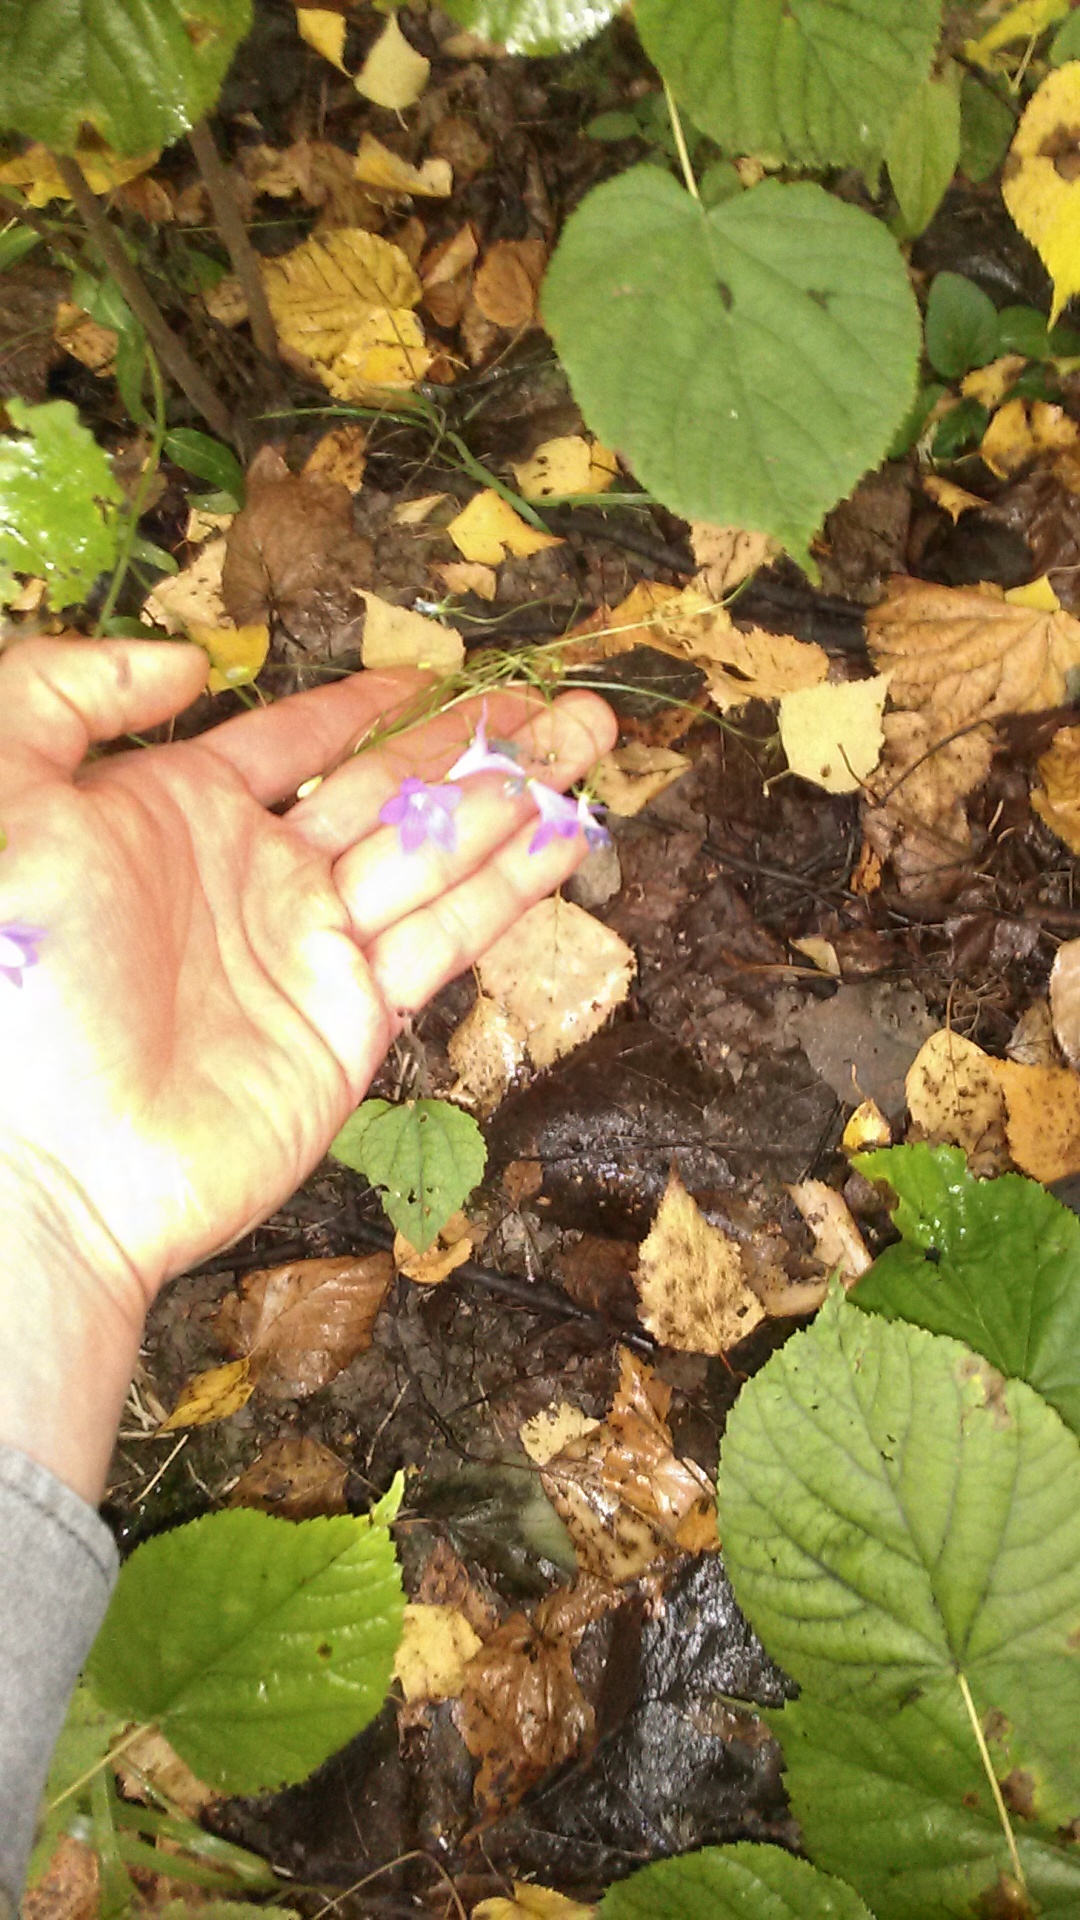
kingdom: Plantae
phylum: Tracheophyta
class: Magnoliopsida
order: Asterales
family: Campanulaceae
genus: Campanula
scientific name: Campanula patula
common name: Spreading bellflower
